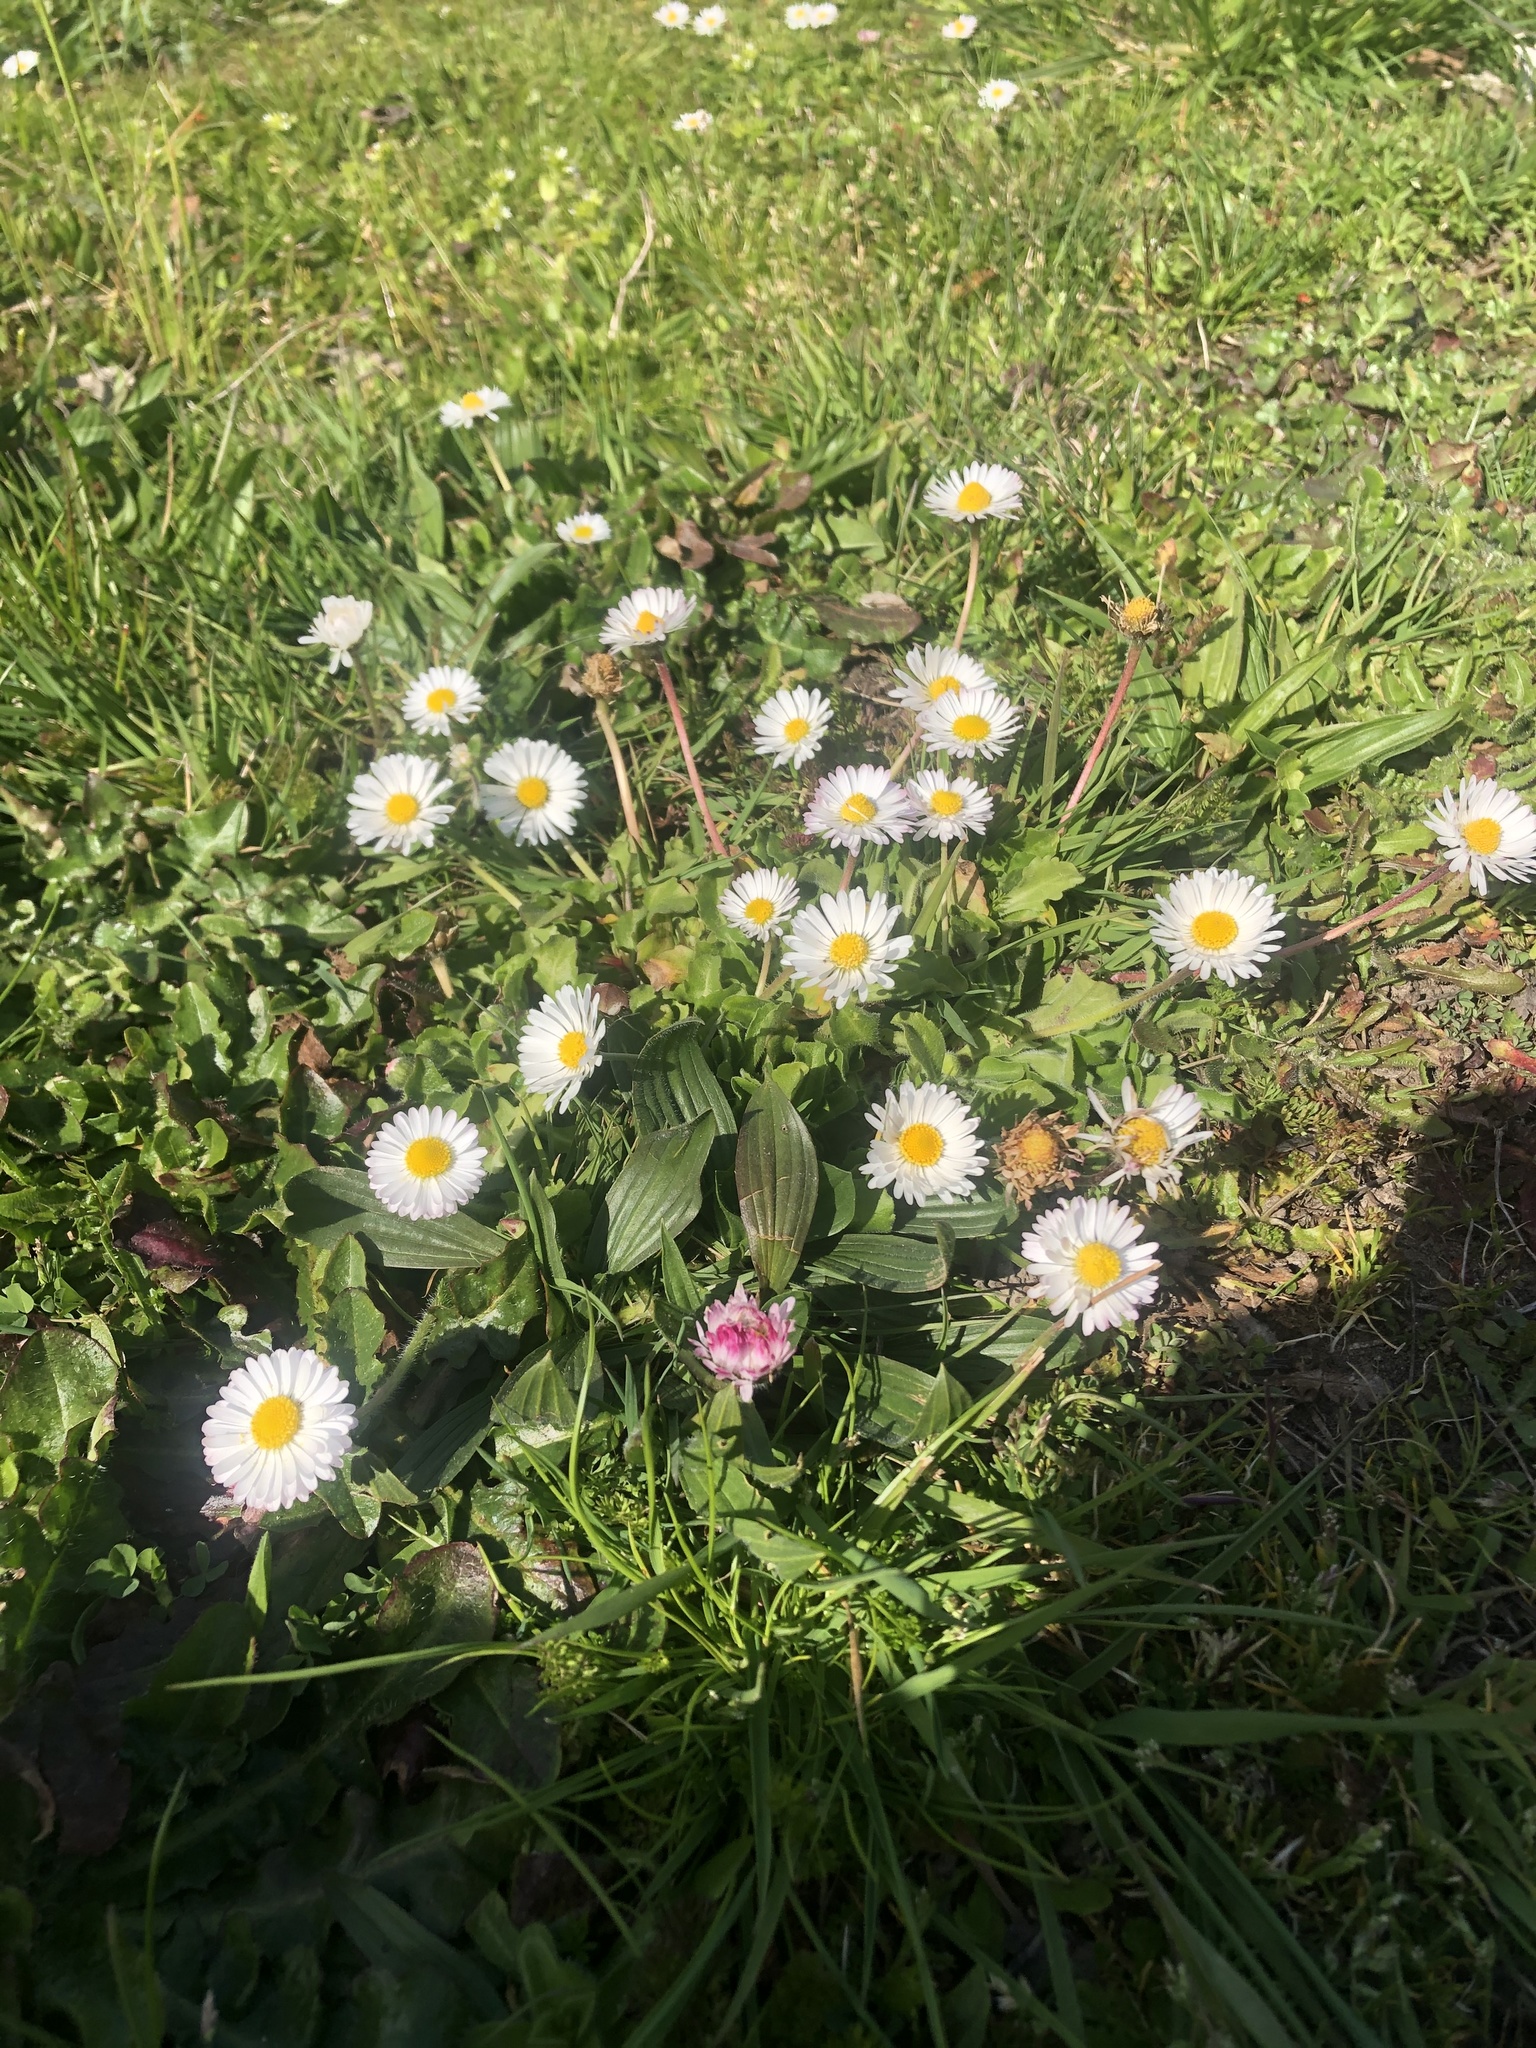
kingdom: Plantae
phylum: Tracheophyta
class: Magnoliopsida
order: Asterales
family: Asteraceae
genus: Bellis
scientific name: Bellis perennis
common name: Lawndaisy
